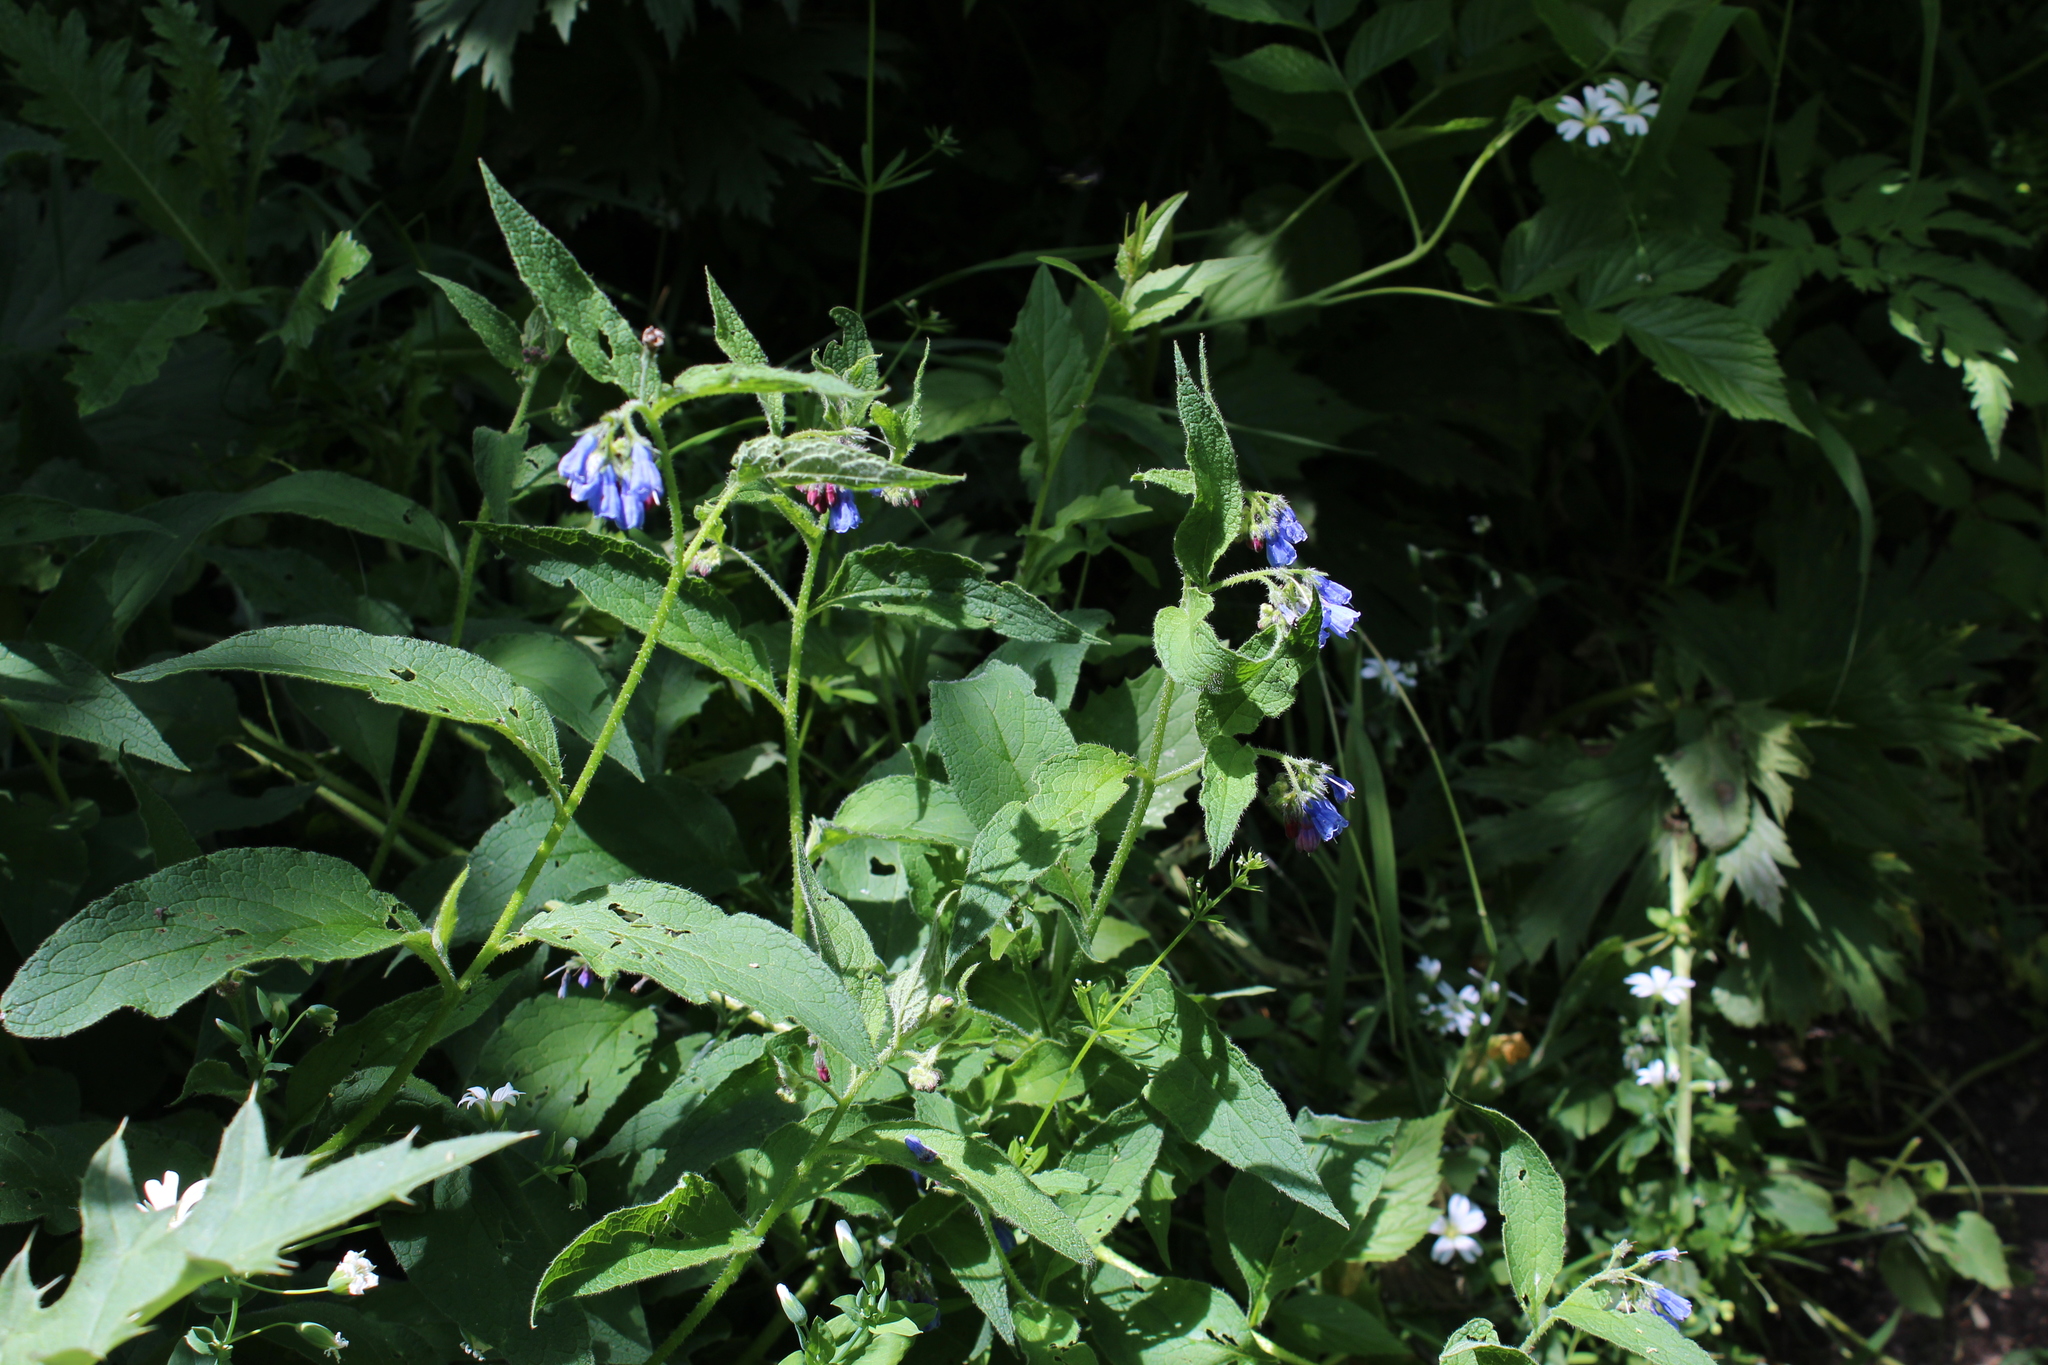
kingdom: Plantae
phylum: Tracheophyta
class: Magnoliopsida
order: Boraginales
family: Boraginaceae
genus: Symphytum
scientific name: Symphytum asperum
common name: Prickly comfrey
